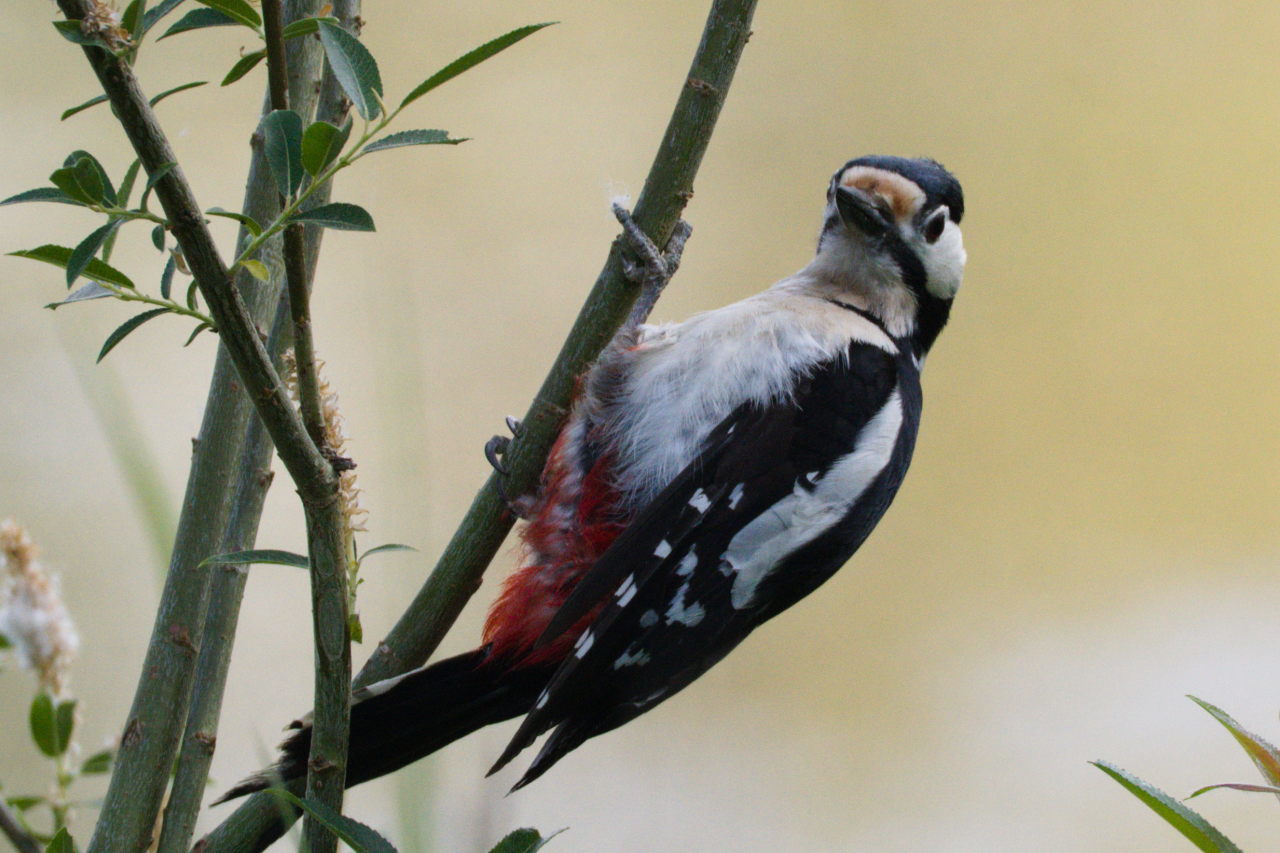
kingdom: Animalia
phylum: Chordata
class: Aves
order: Piciformes
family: Picidae
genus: Dendrocopos
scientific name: Dendrocopos major
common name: Great spotted woodpecker
